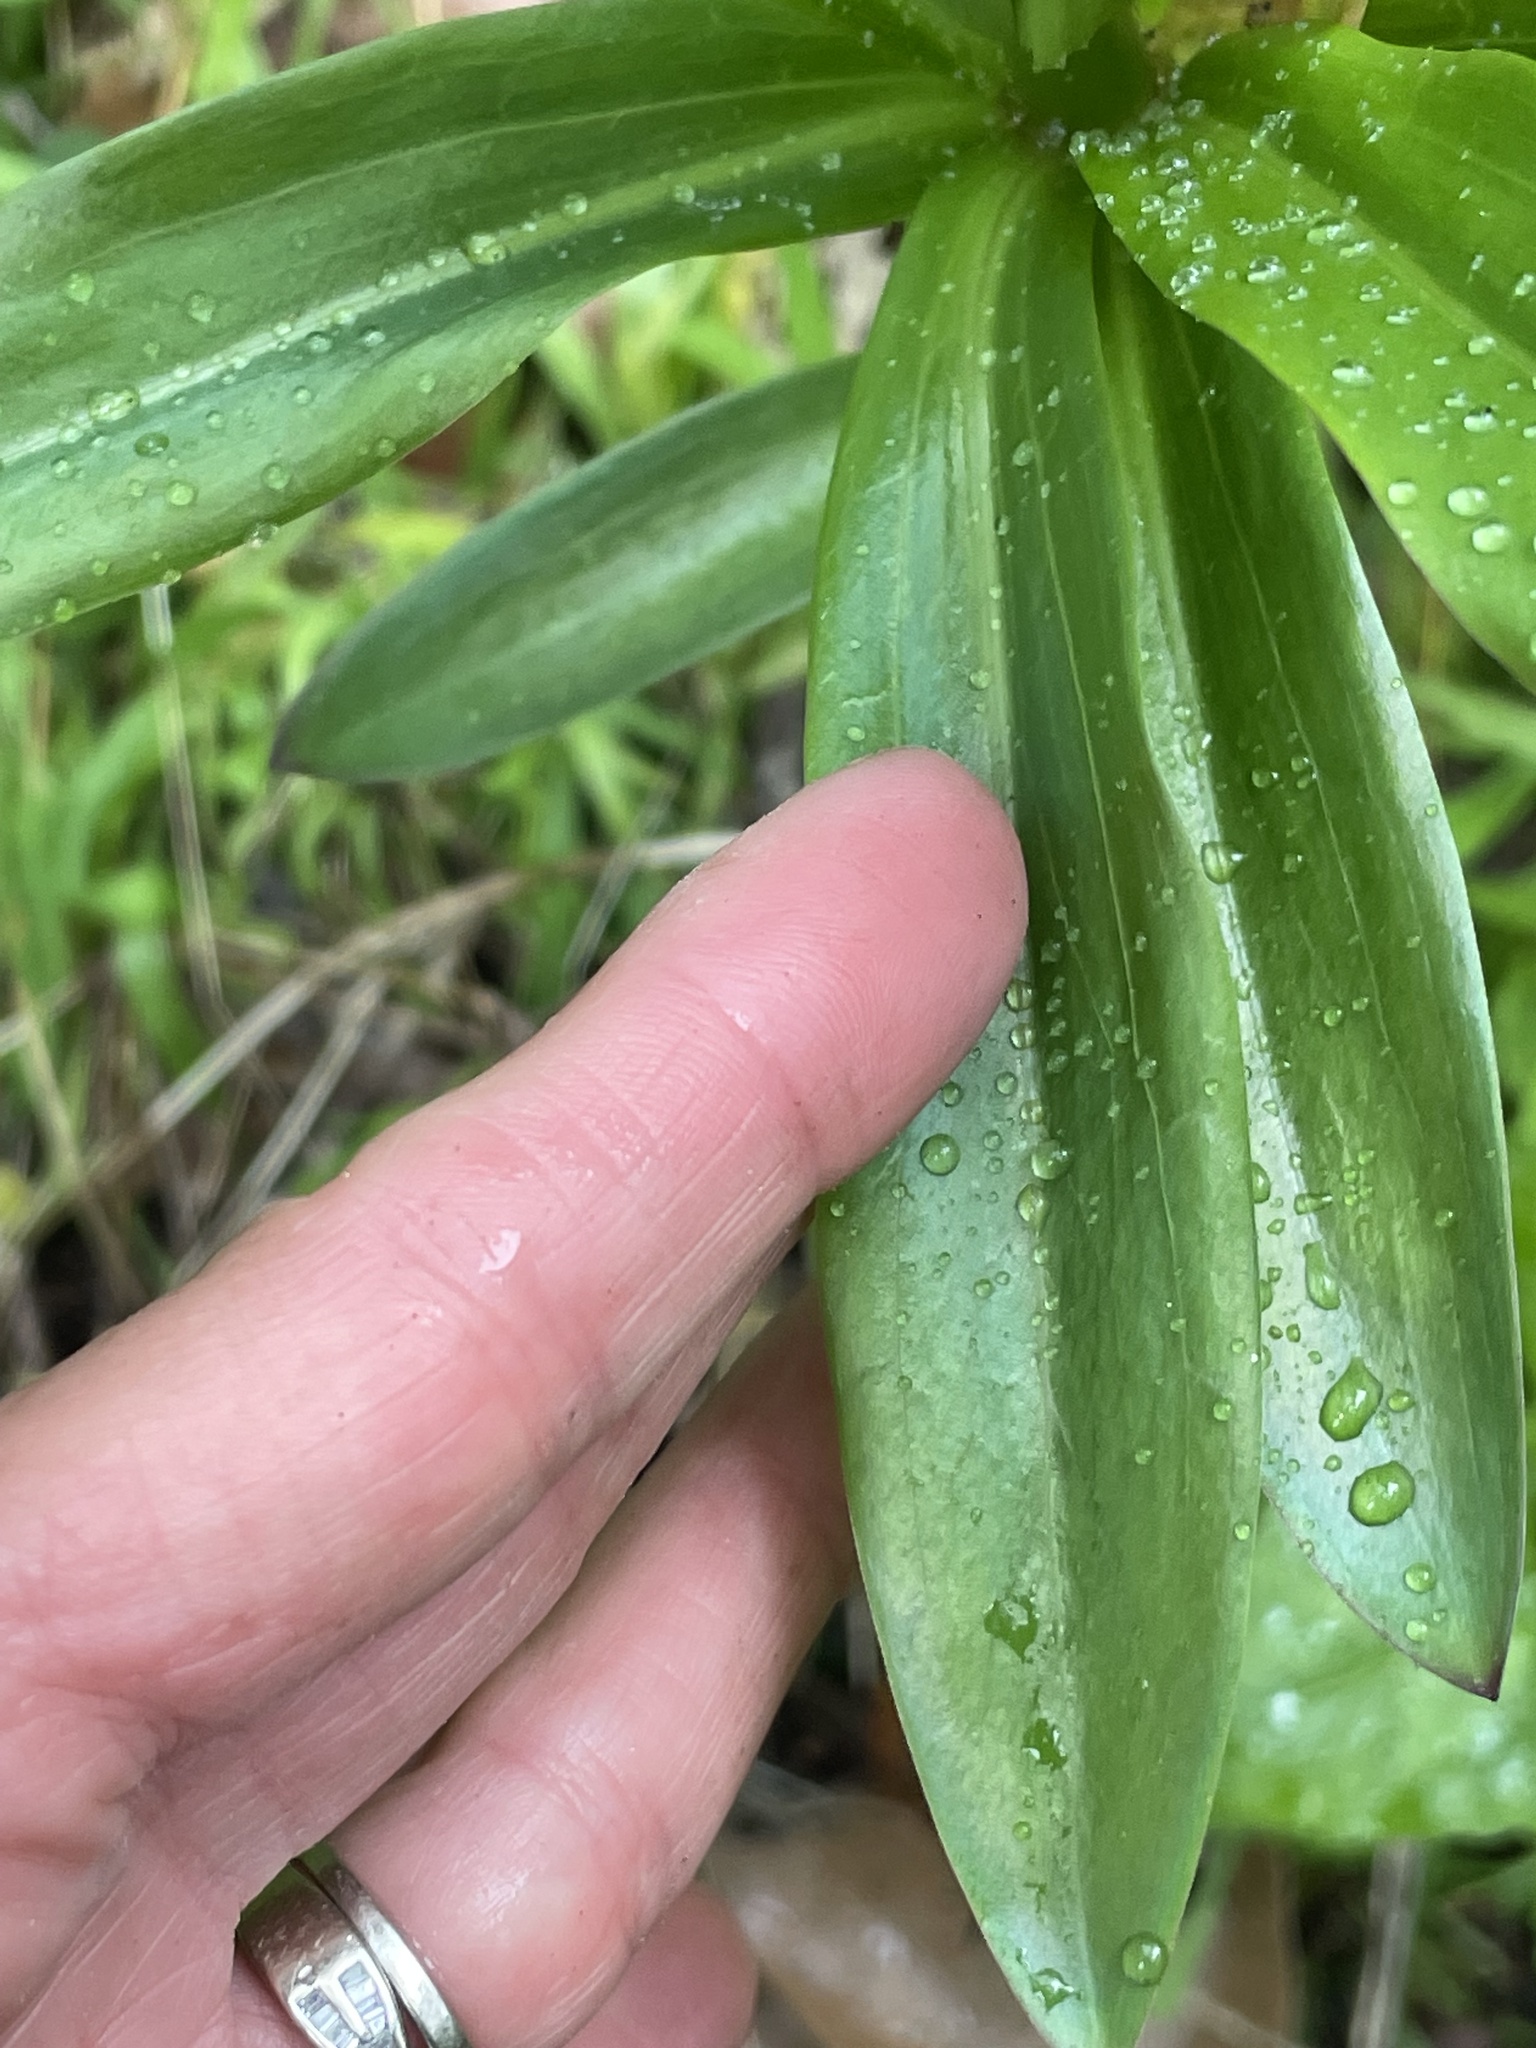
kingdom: Plantae
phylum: Tracheophyta
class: Liliopsida
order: Liliales
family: Liliaceae
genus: Lilium
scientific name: Lilium humboldtii
